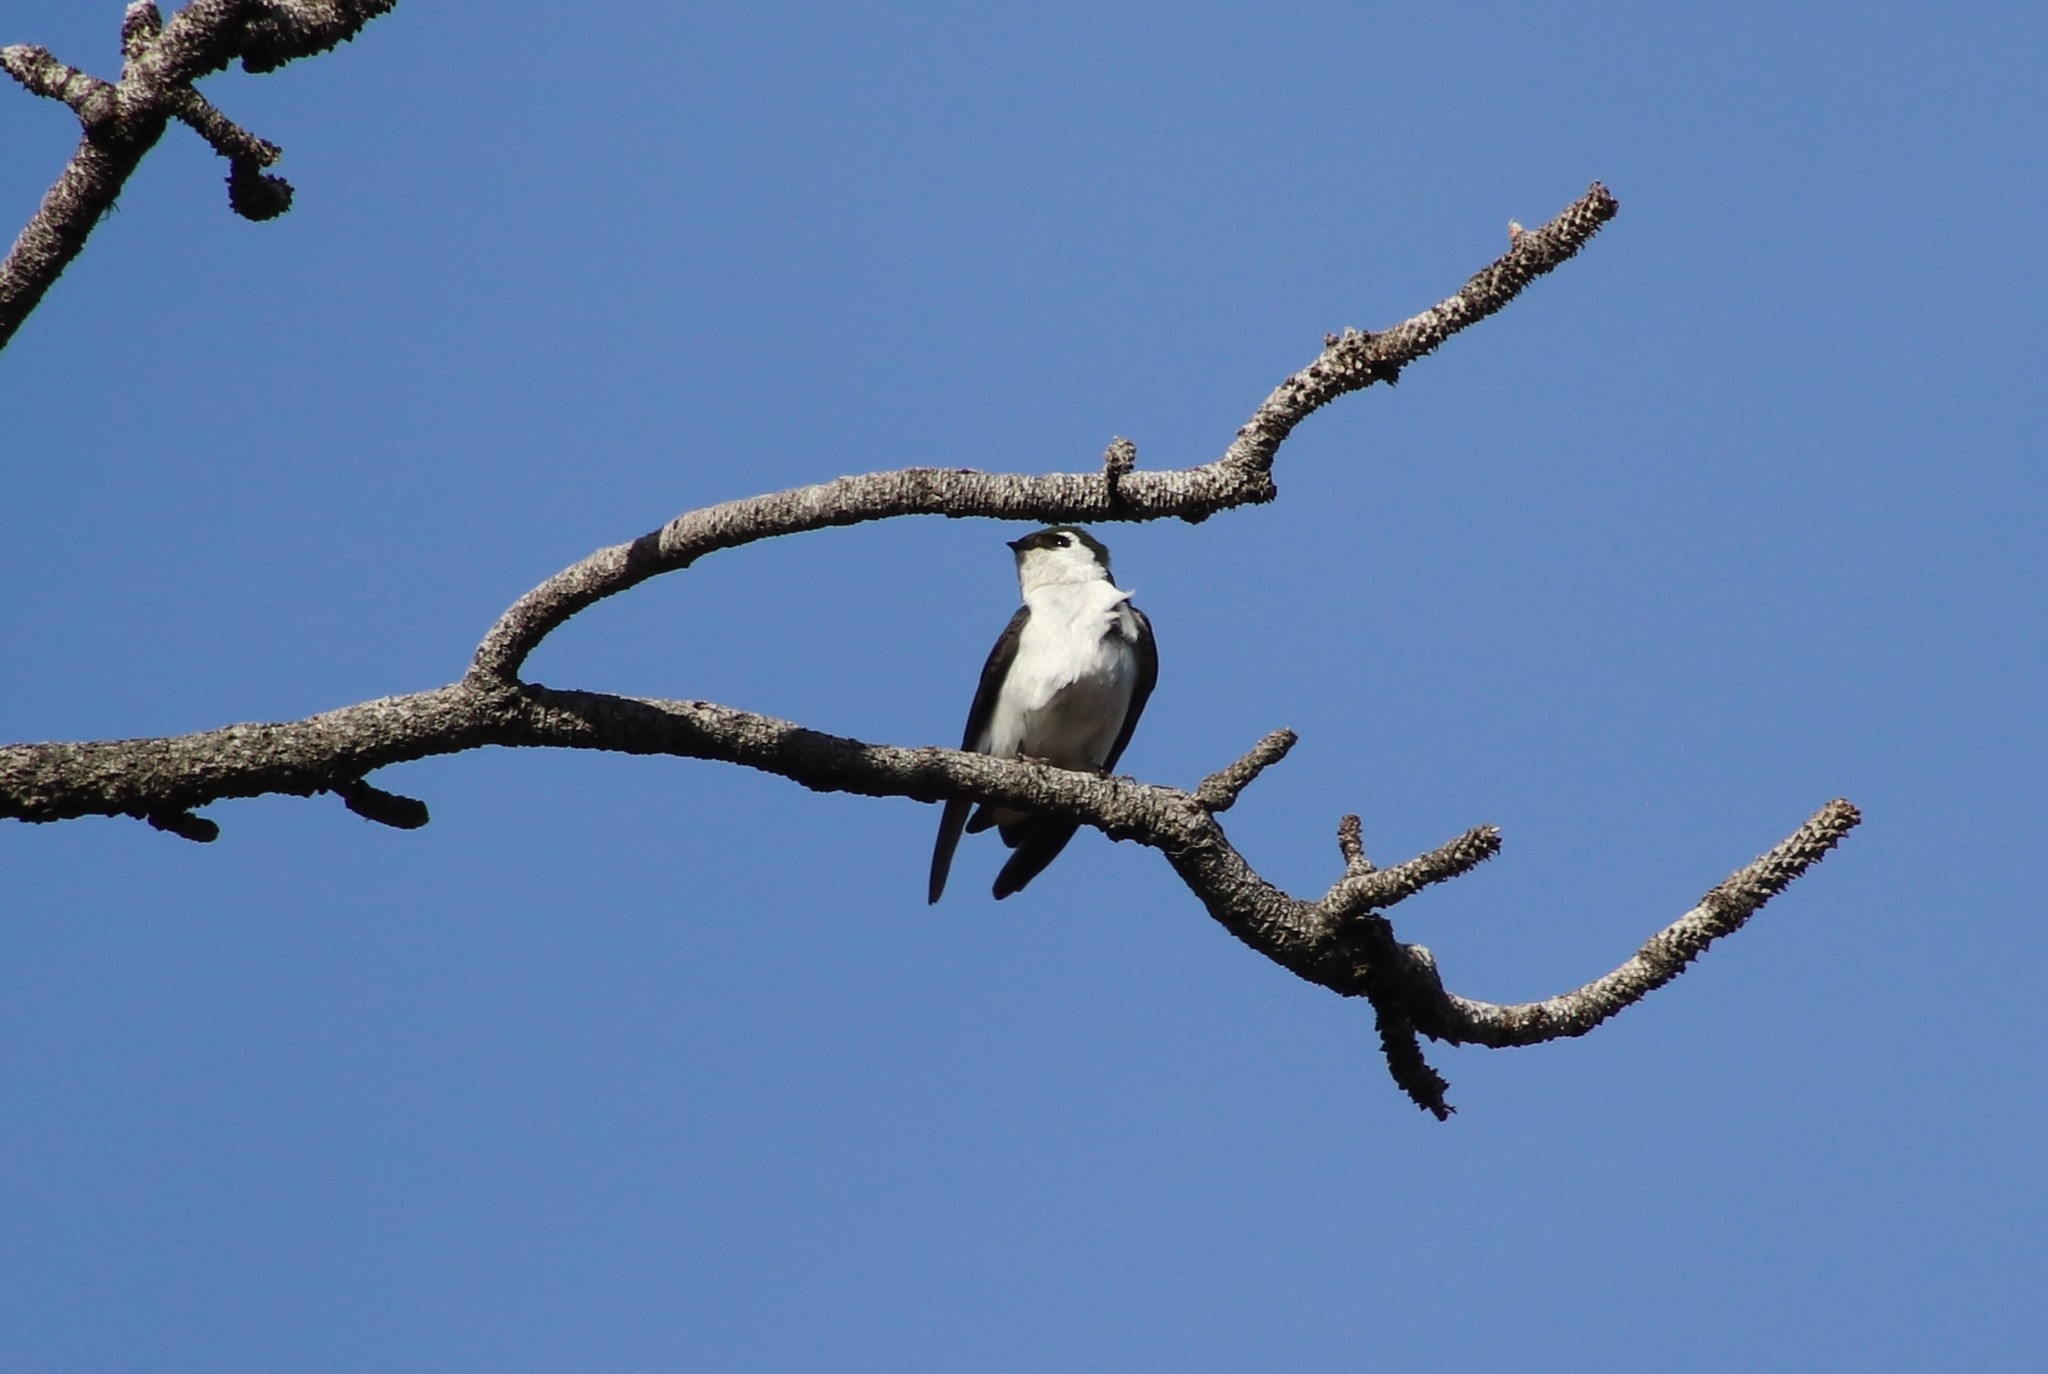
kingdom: Animalia
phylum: Chordata
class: Aves
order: Passeriformes
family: Hirundinidae
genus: Tachycineta
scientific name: Tachycineta thalassina
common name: Violet-green swallow
